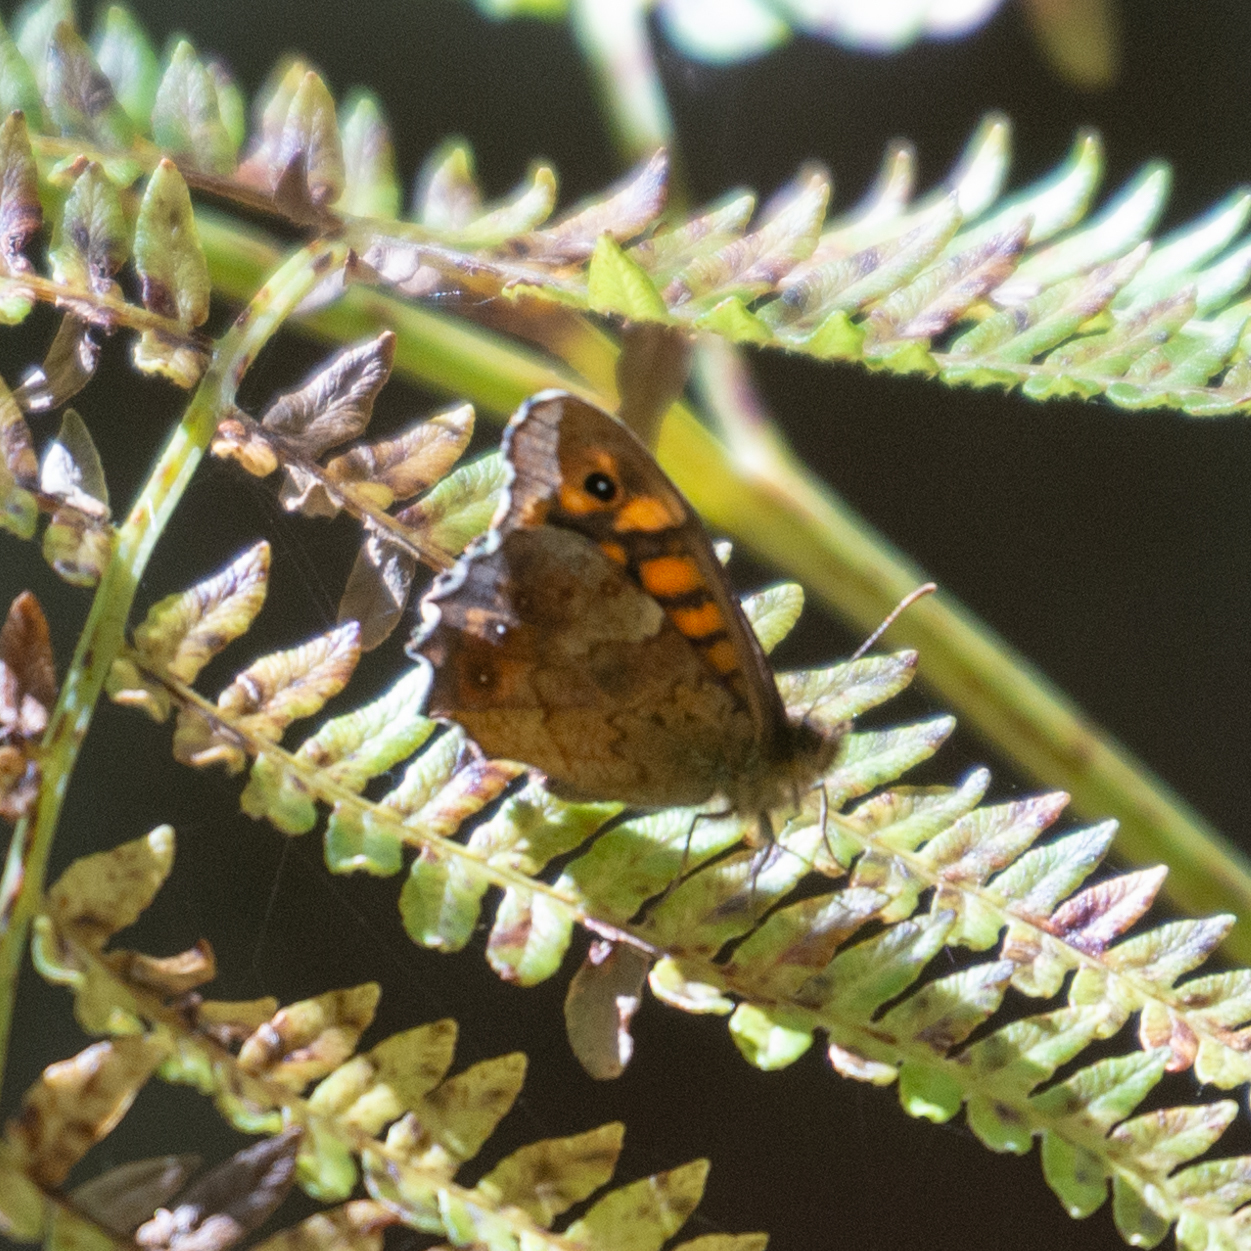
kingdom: Animalia
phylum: Arthropoda
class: Insecta
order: Lepidoptera
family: Nymphalidae
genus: Pararge
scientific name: Pararge aegeria
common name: Speckled wood
